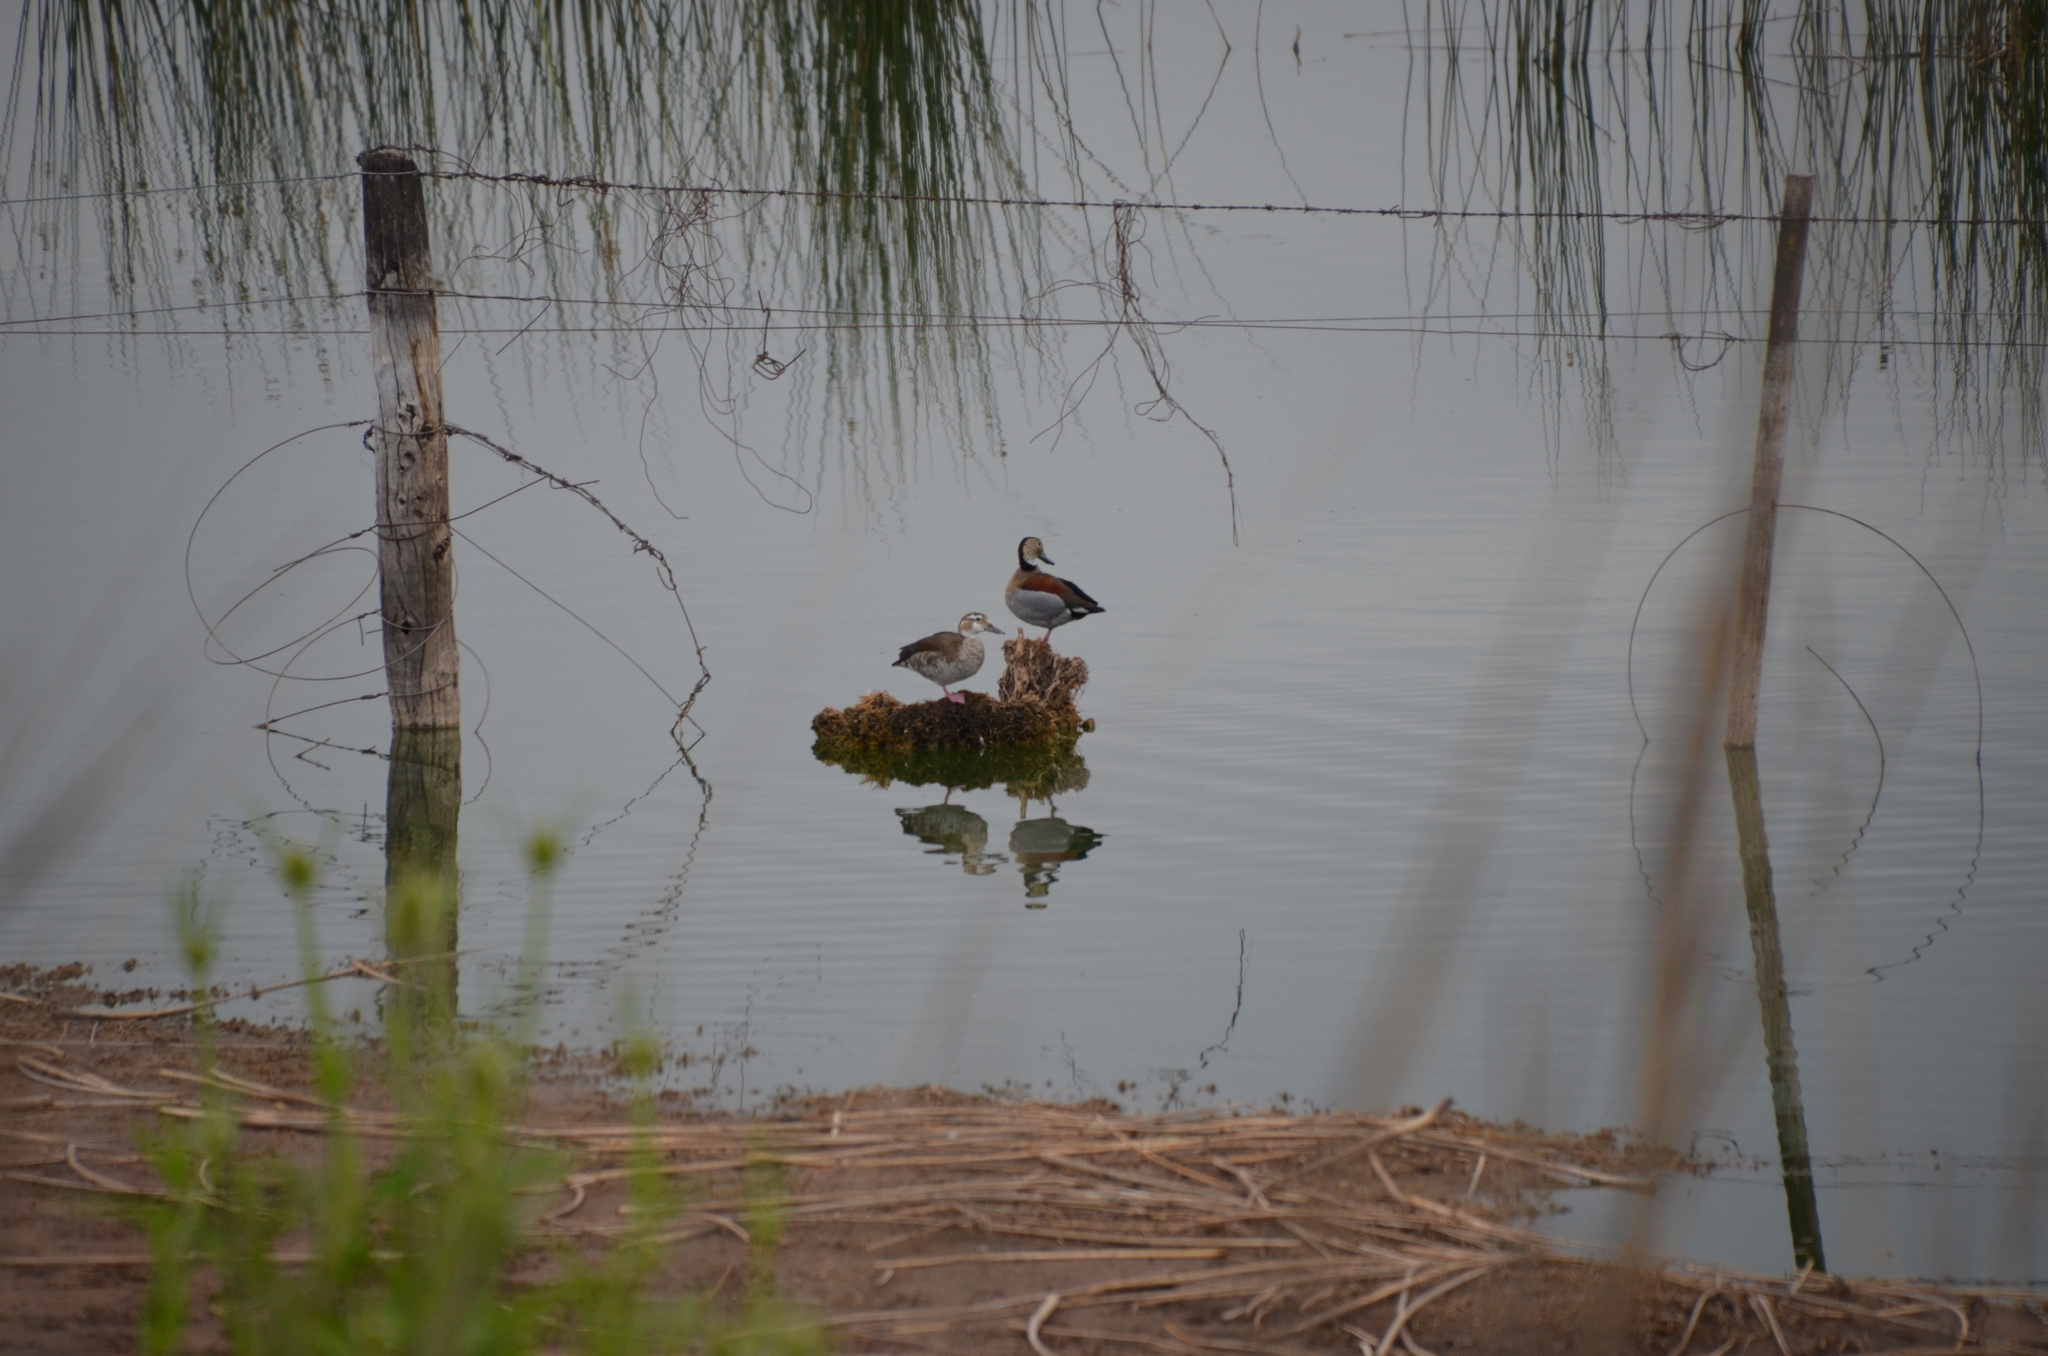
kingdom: Animalia
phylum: Chordata
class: Aves
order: Anseriformes
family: Anatidae
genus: Callonetta
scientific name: Callonetta leucophrys
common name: Ringed teal
